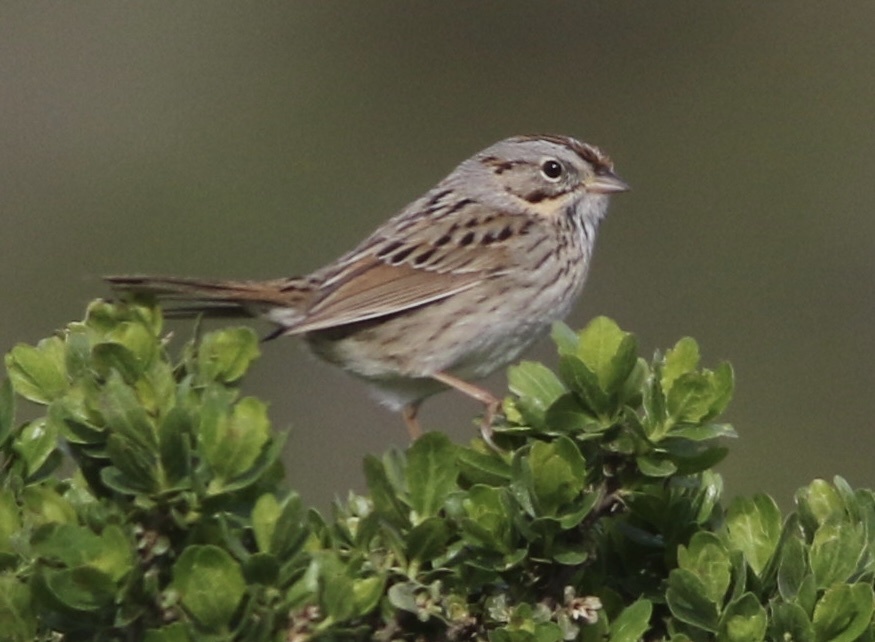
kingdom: Animalia
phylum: Chordata
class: Aves
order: Passeriformes
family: Passerellidae
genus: Melospiza
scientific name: Melospiza lincolnii
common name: Lincoln's sparrow
